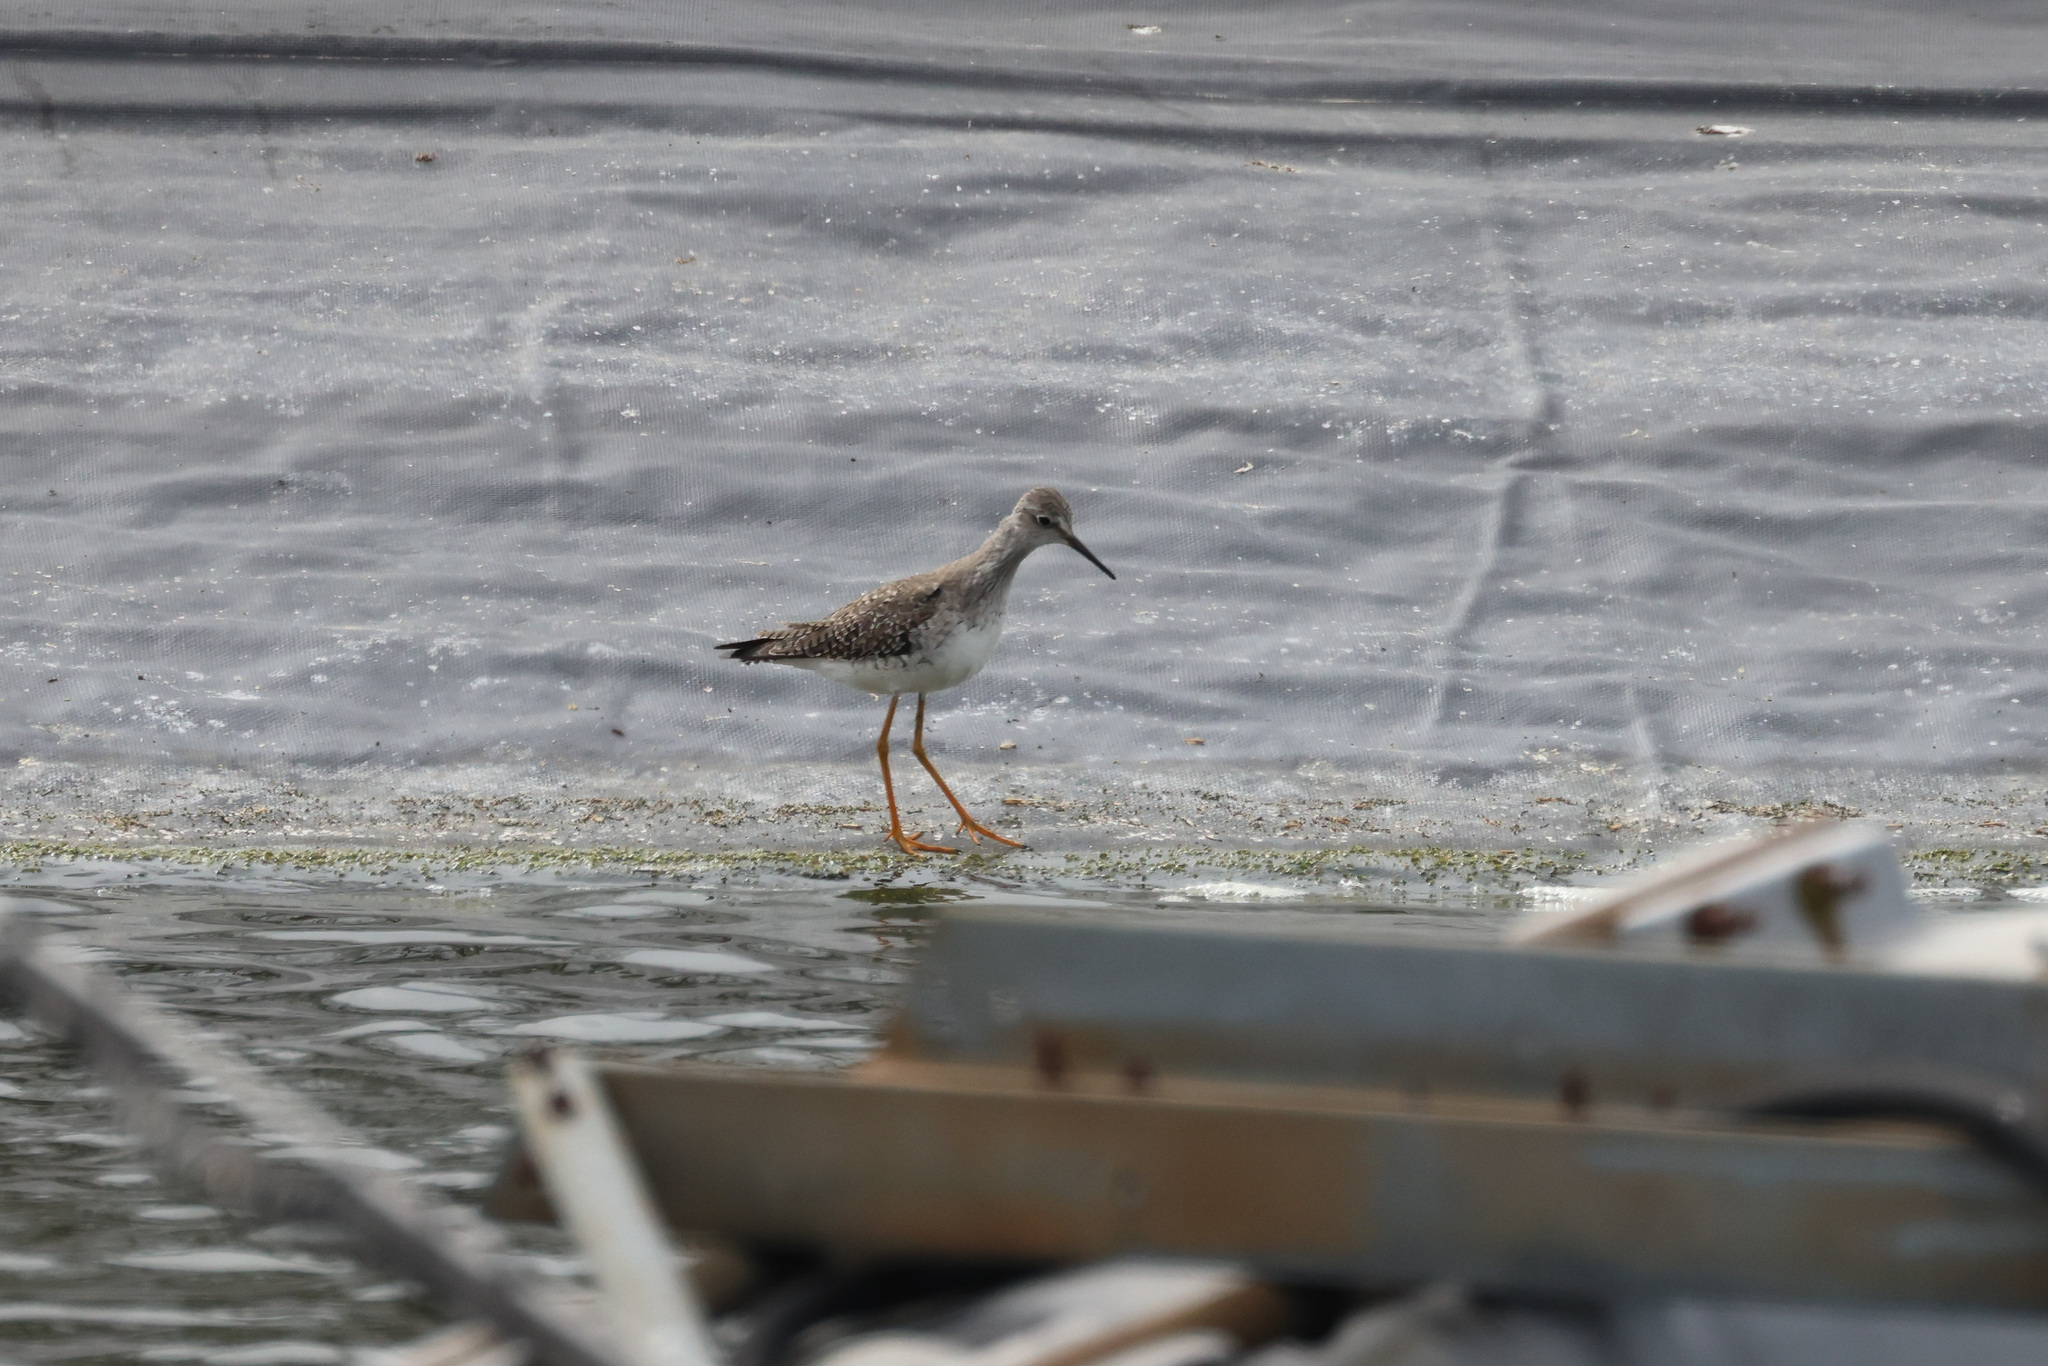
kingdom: Animalia
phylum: Chordata
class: Aves
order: Charadriiformes
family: Scolopacidae
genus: Tringa
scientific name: Tringa flavipes
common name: Lesser yellowlegs
